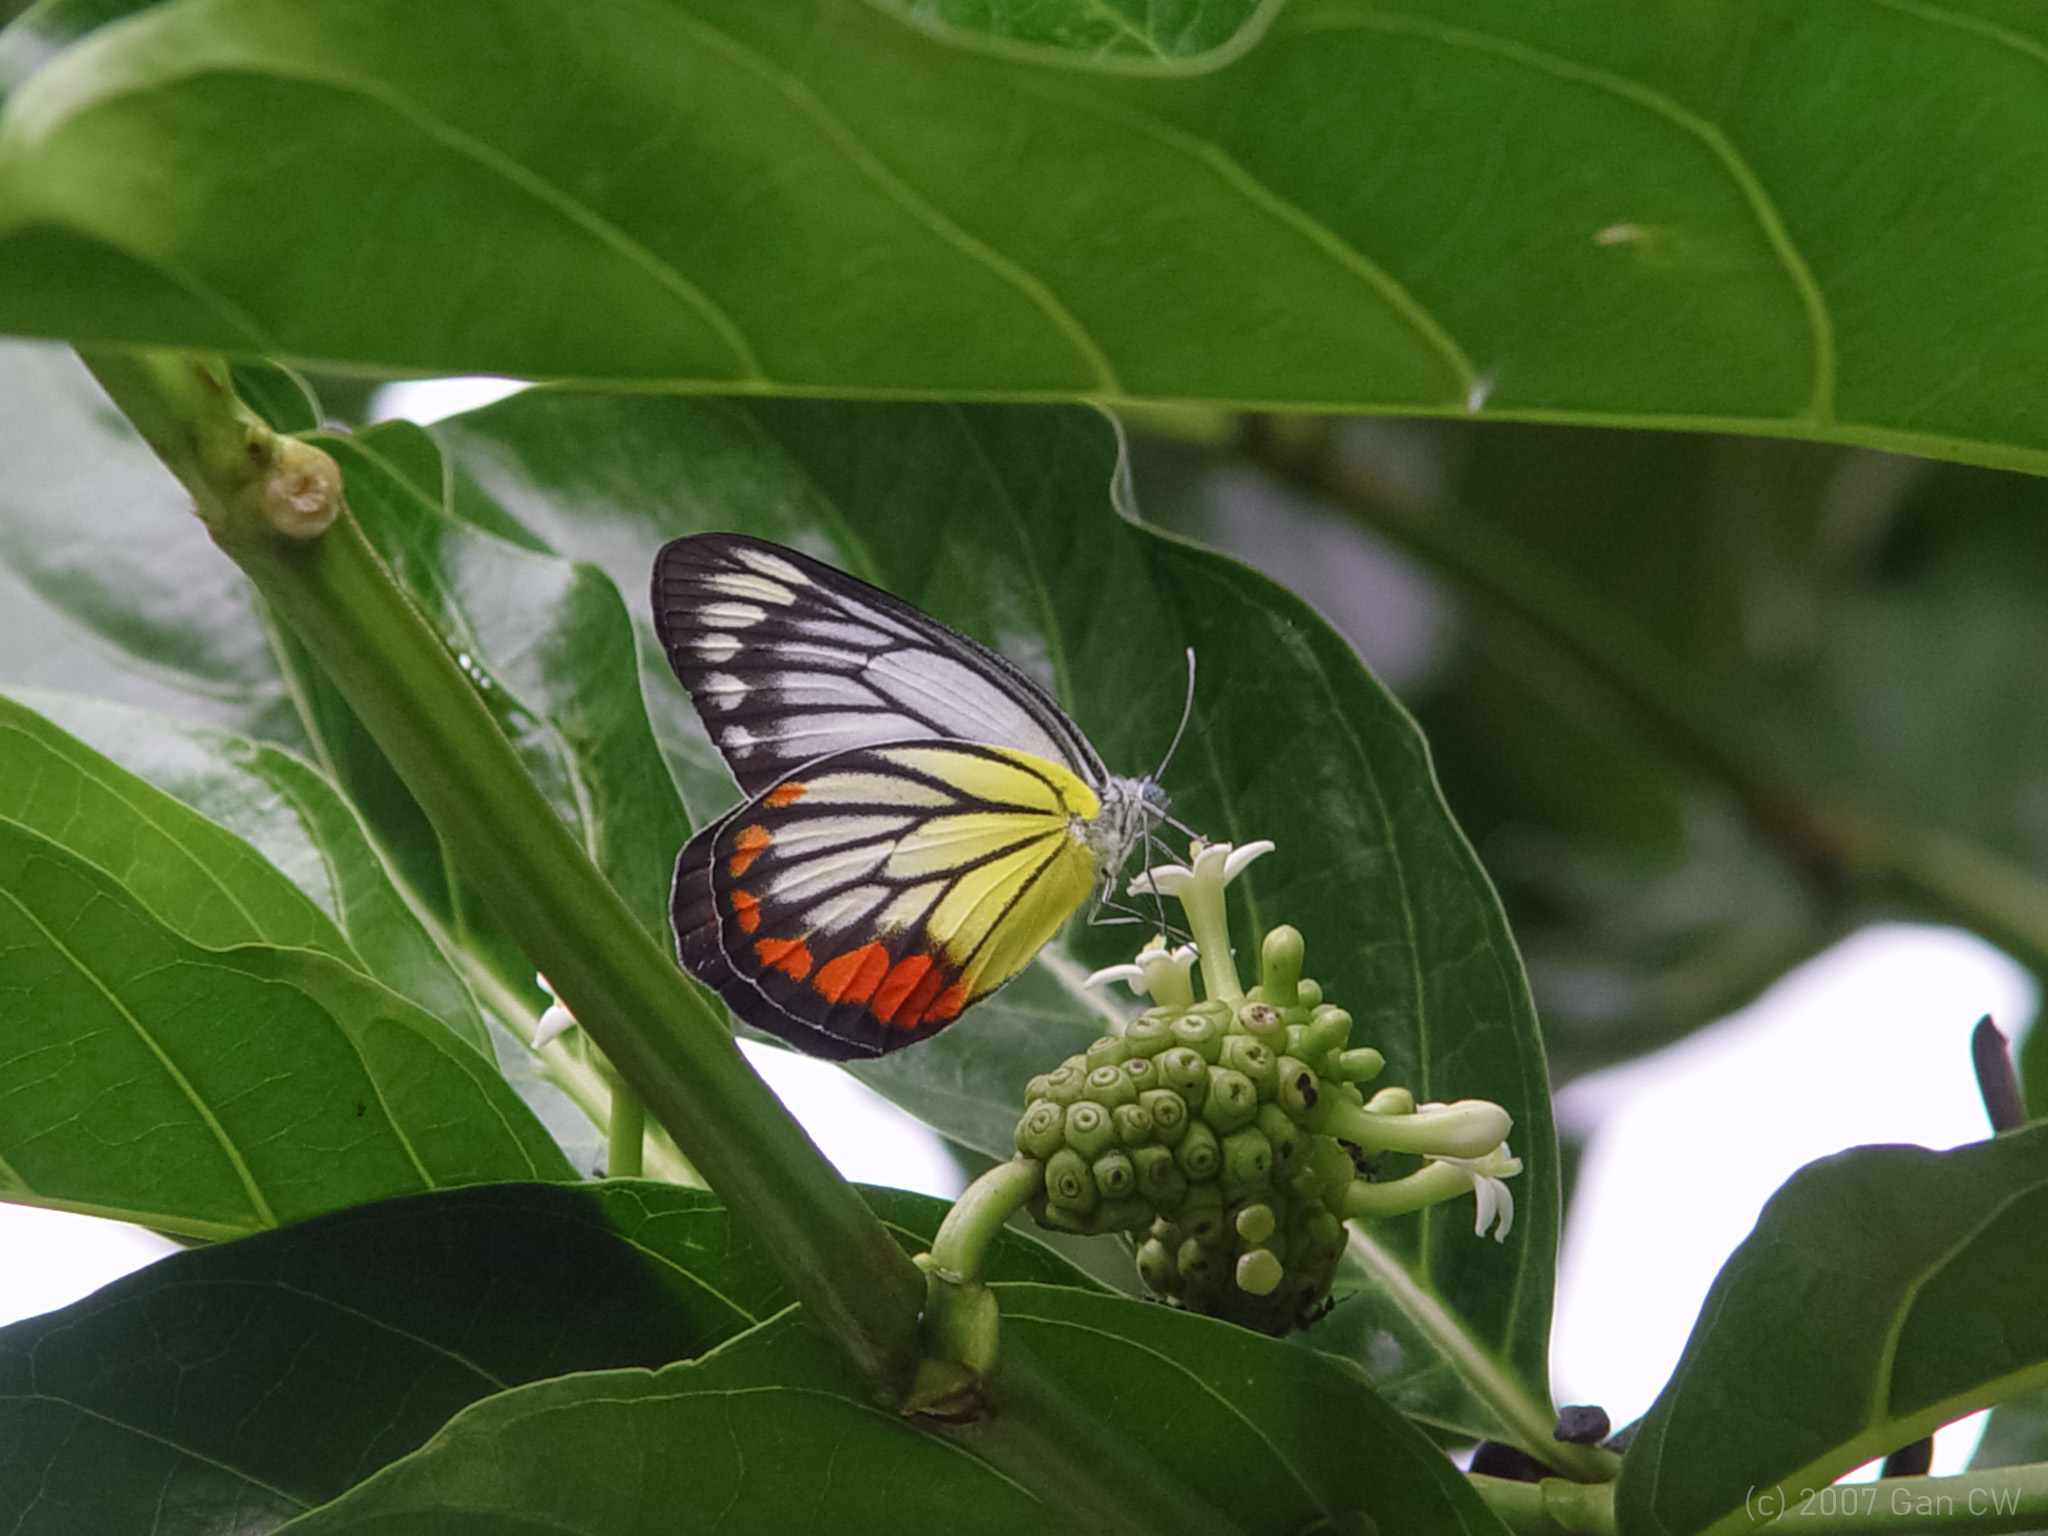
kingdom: Animalia
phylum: Arthropoda
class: Insecta
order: Lepidoptera
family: Pieridae
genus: Delias
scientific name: Delias hyparete
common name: Painted jezebel
